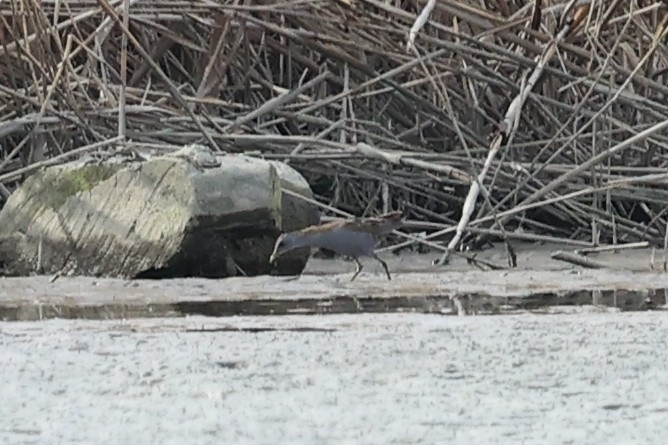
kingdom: Animalia
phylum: Chordata
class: Aves
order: Gruiformes
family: Rallidae
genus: Porzana
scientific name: Porzana parva
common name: Little crake
